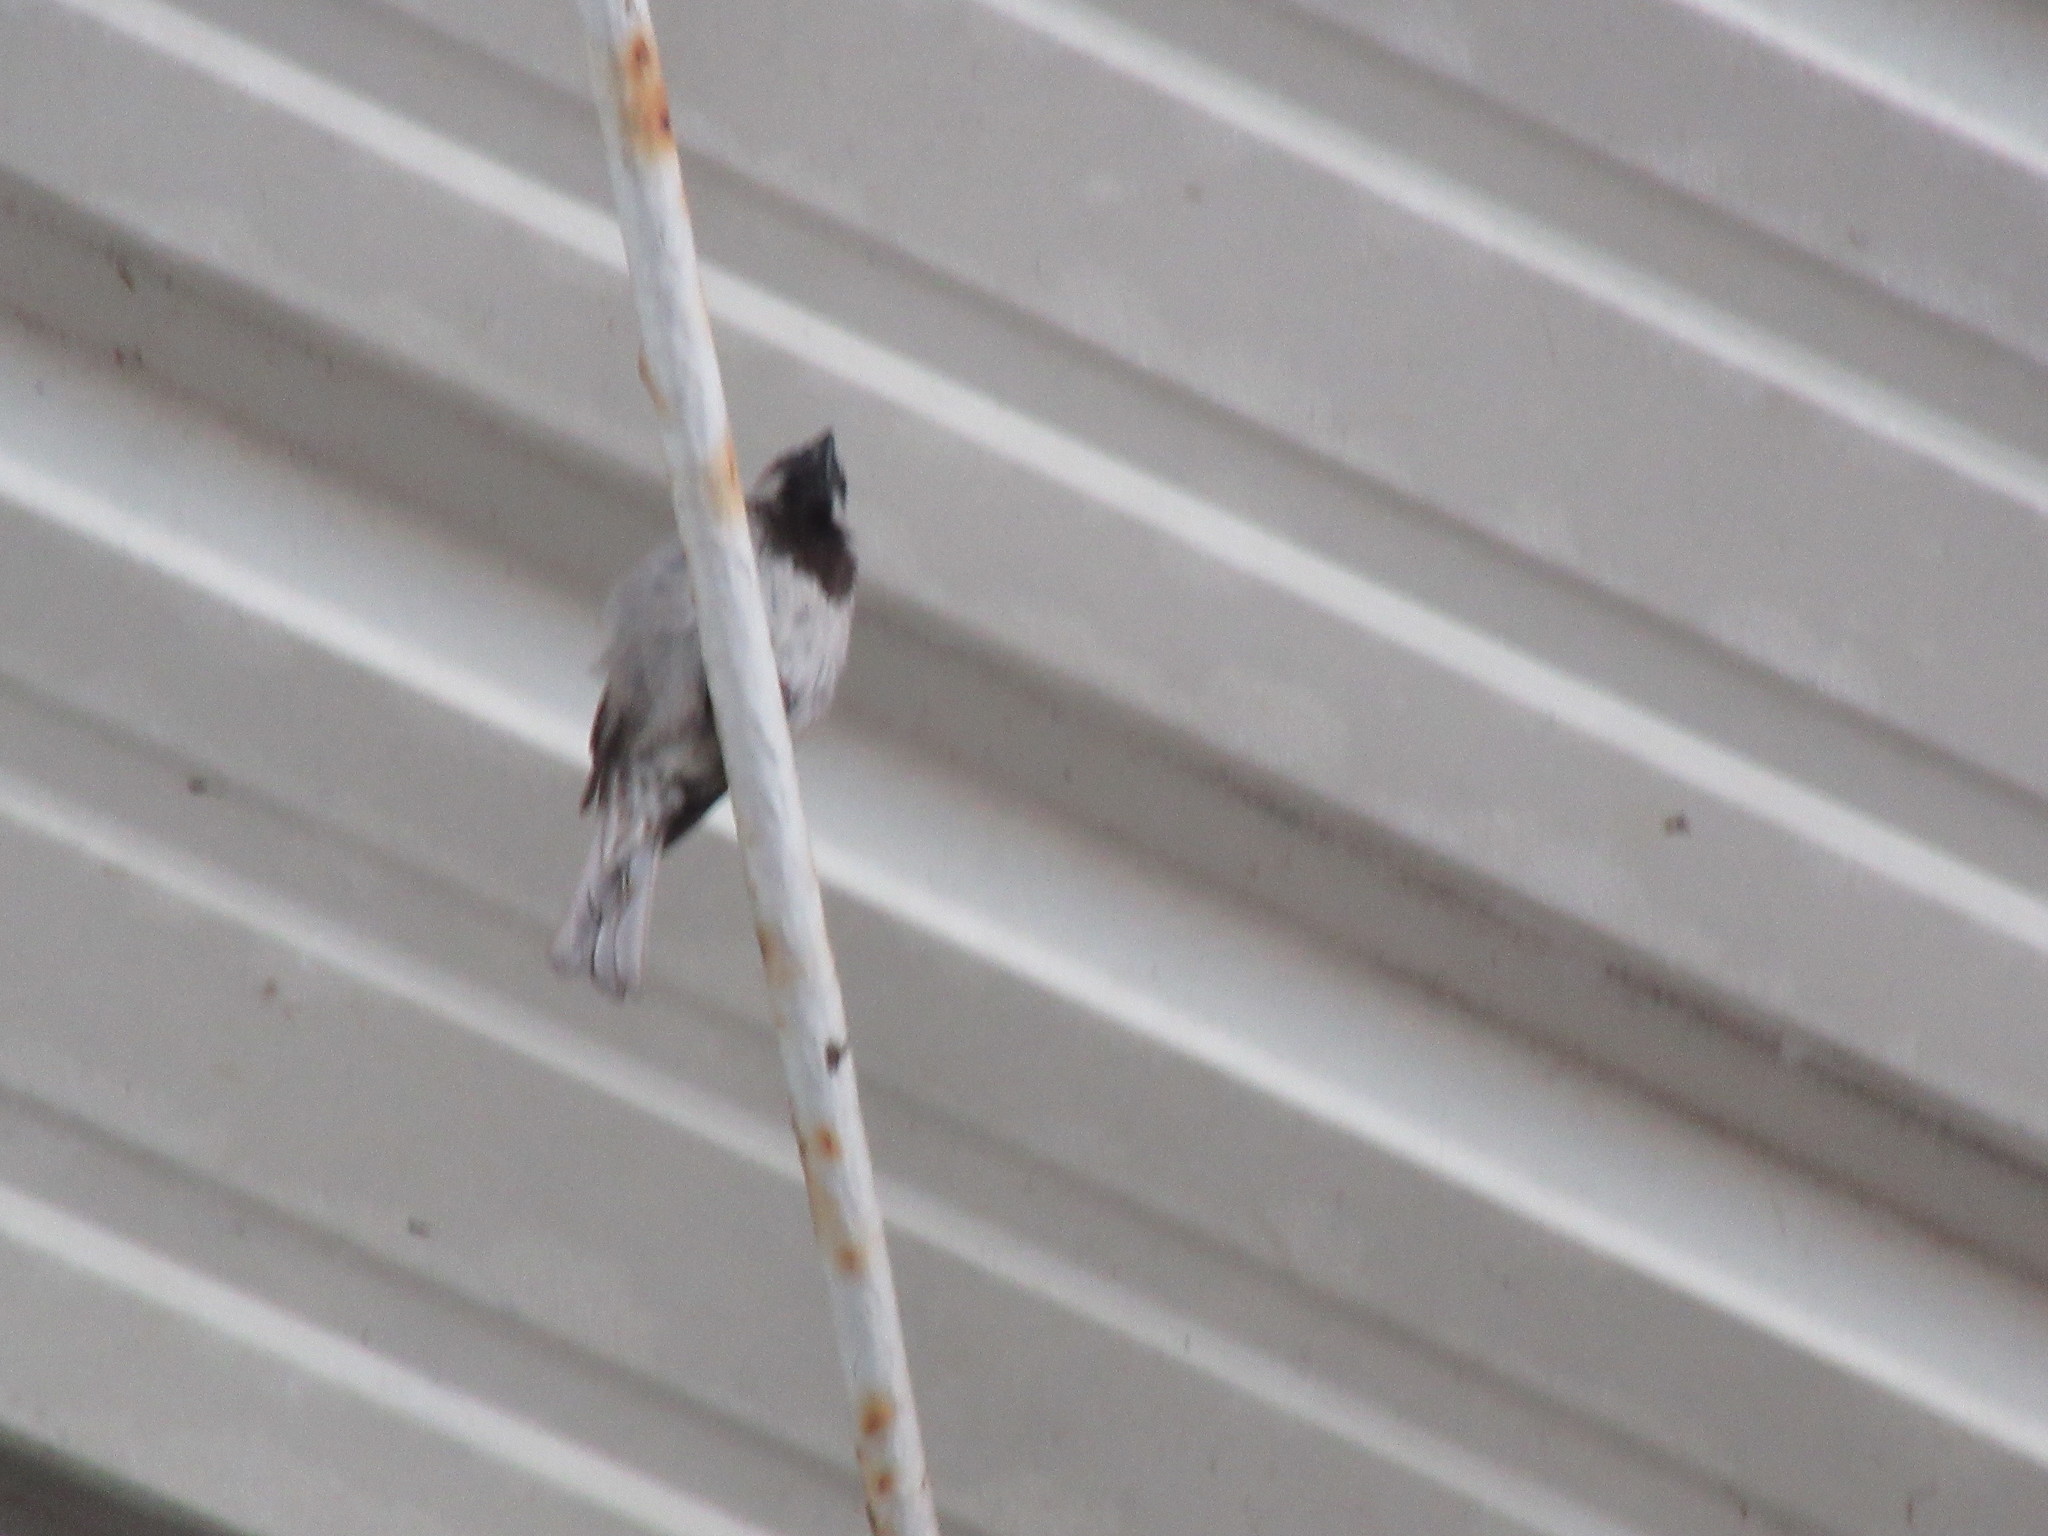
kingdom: Animalia
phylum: Chordata
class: Aves
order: Passeriformes
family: Passeridae
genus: Passer
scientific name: Passer domesticus
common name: House sparrow
